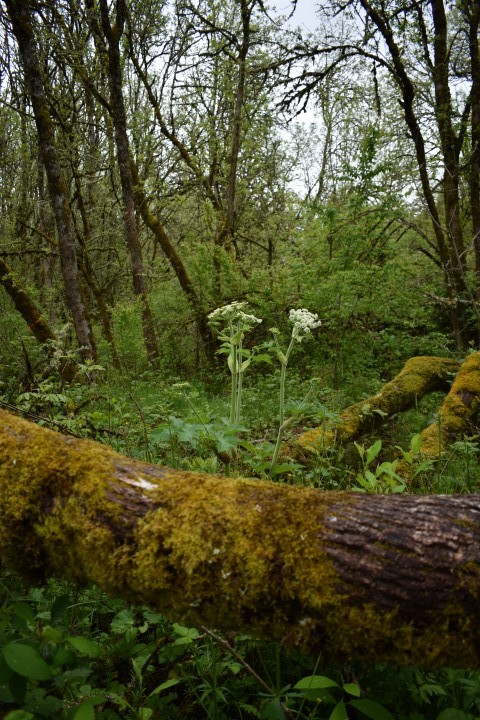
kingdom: Plantae
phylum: Tracheophyta
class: Magnoliopsida
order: Apiales
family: Apiaceae
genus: Heracleum
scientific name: Heracleum maximum
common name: American cow parsnip
